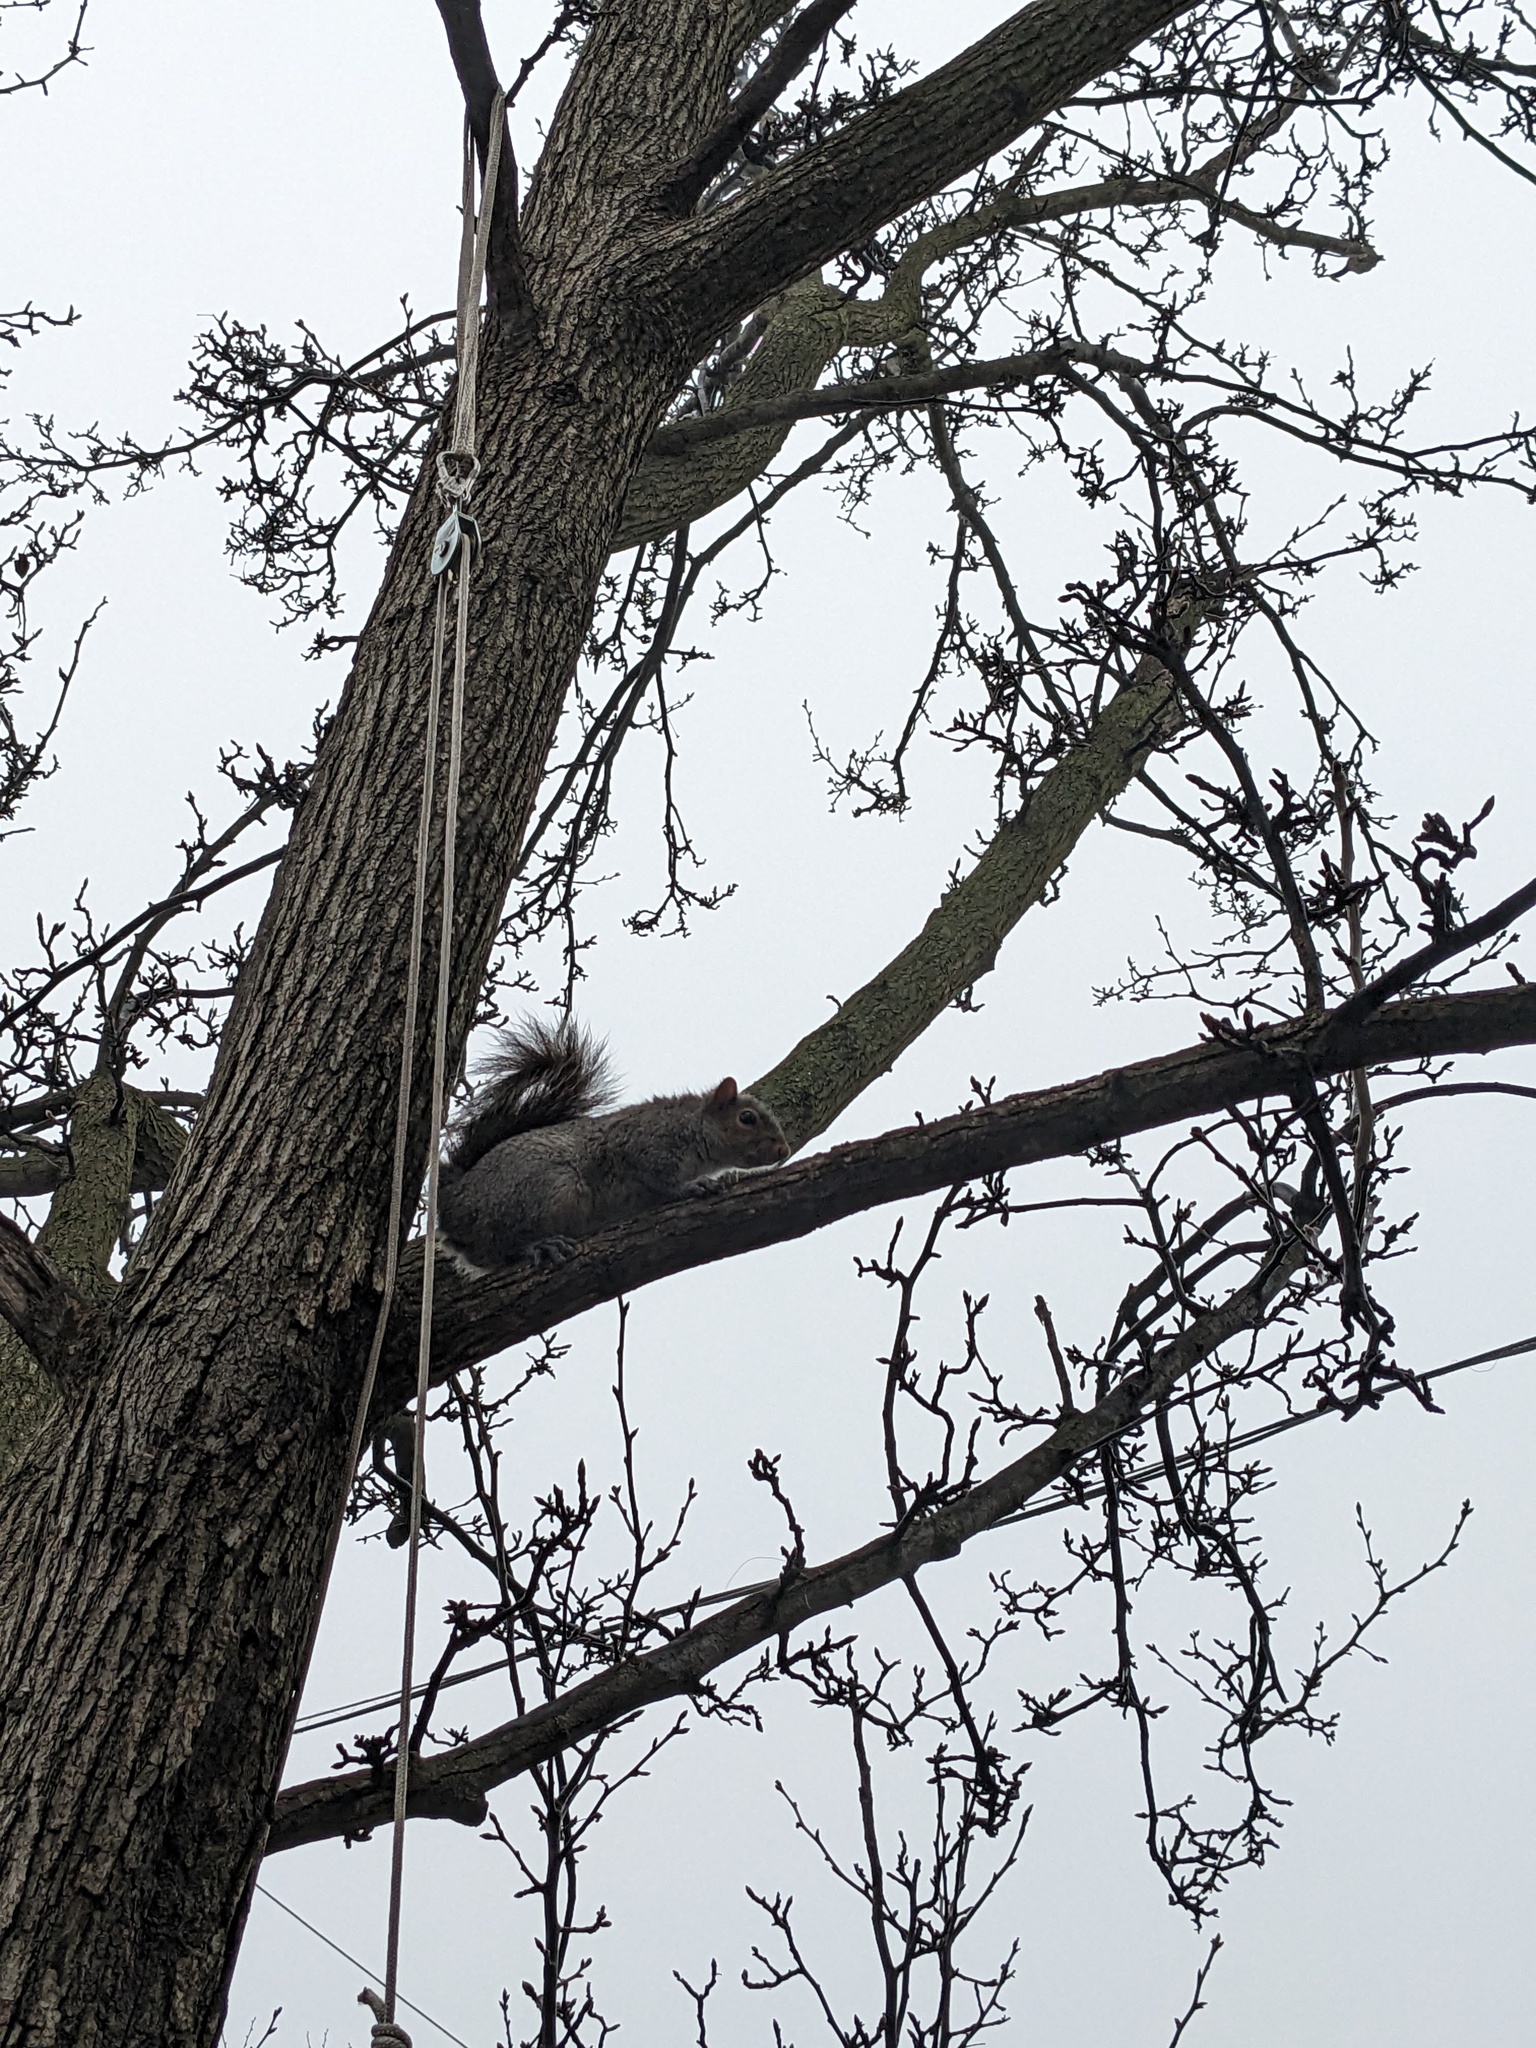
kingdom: Animalia
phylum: Chordata
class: Mammalia
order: Rodentia
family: Sciuridae
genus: Sciurus
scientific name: Sciurus carolinensis
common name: Eastern gray squirrel
